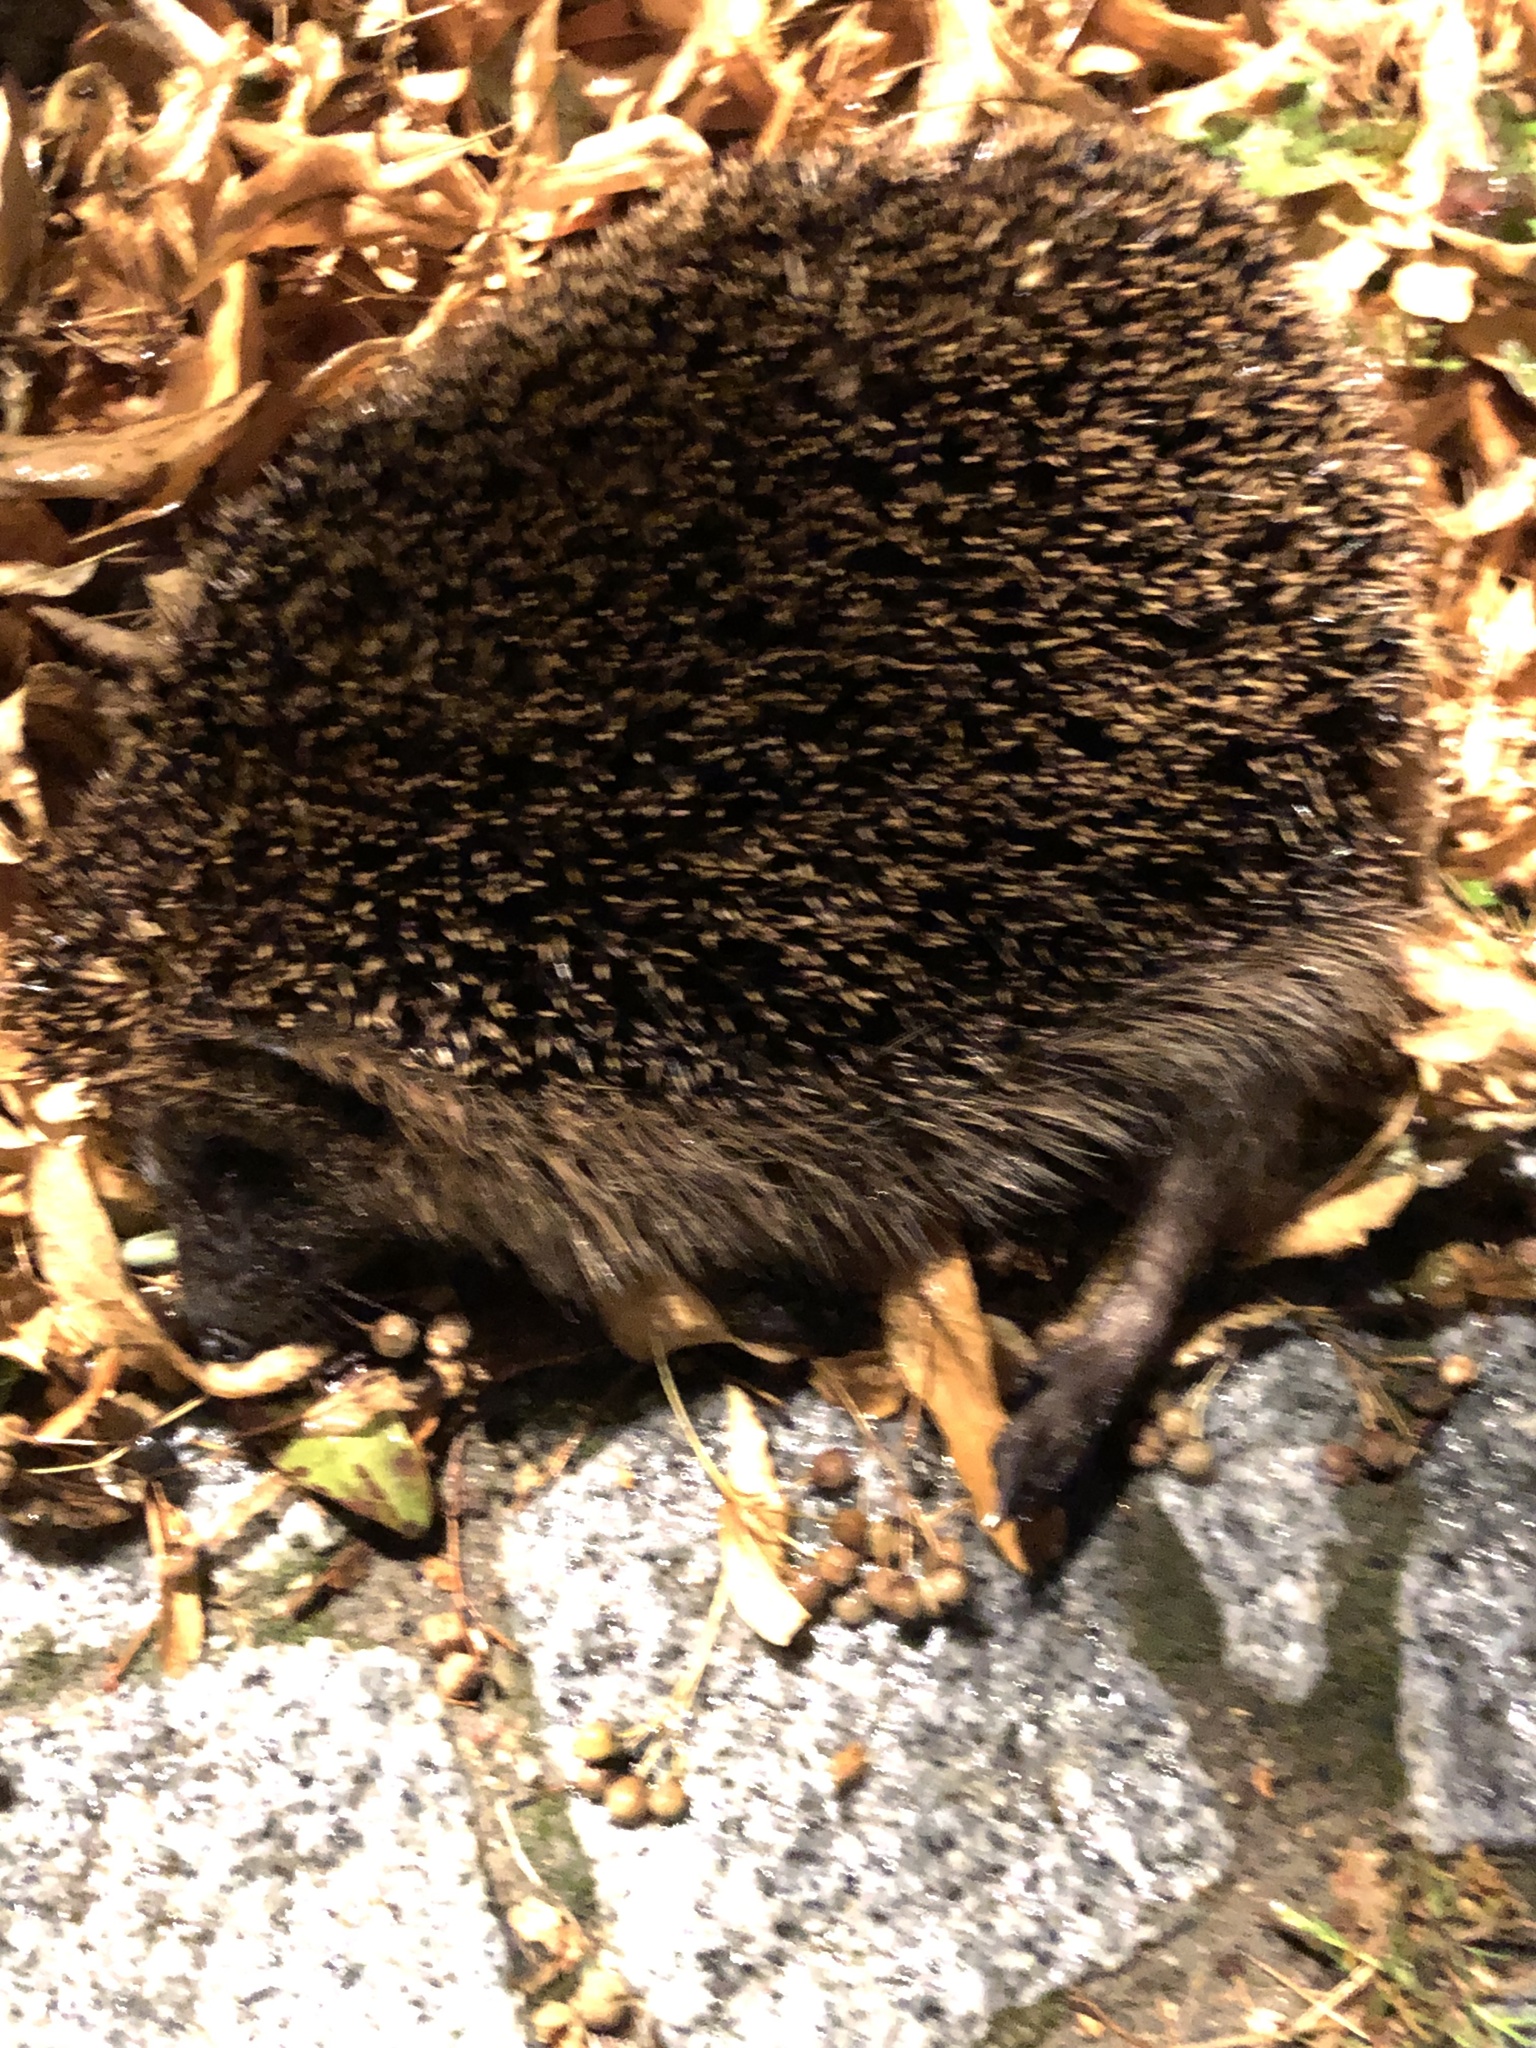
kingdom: Animalia
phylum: Chordata
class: Mammalia
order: Erinaceomorpha
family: Erinaceidae
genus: Erinaceus
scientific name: Erinaceus europaeus
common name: West european hedgehog
